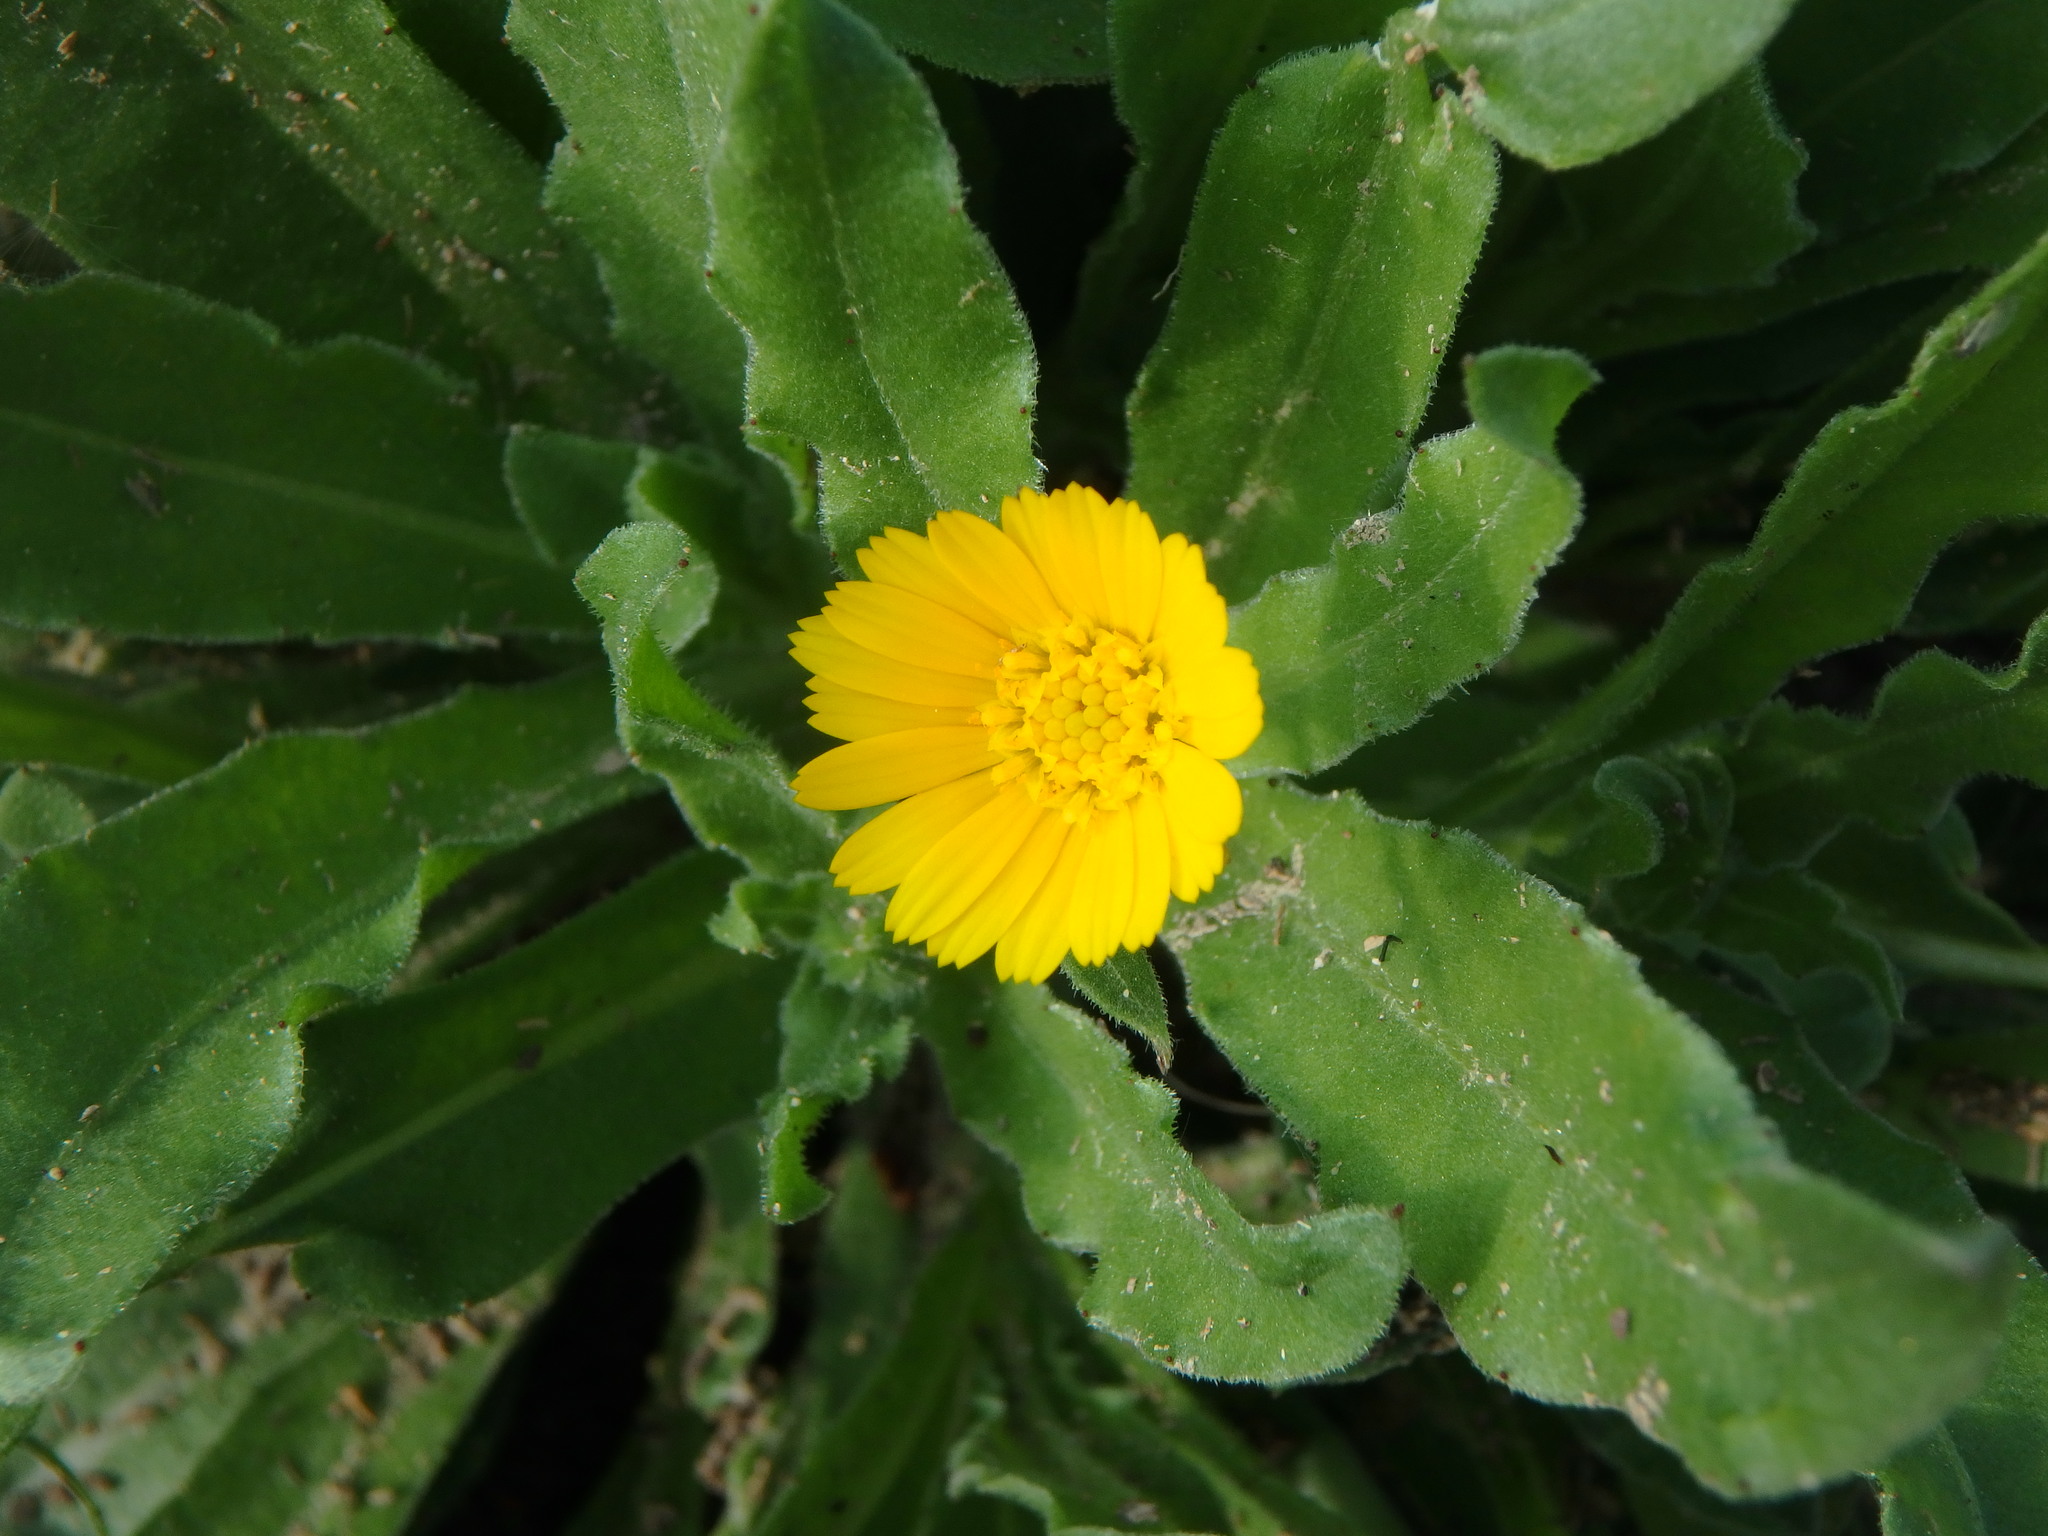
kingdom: Plantae
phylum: Tracheophyta
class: Magnoliopsida
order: Asterales
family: Asteraceae
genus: Calendula
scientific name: Calendula arvensis
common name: Field marigold
